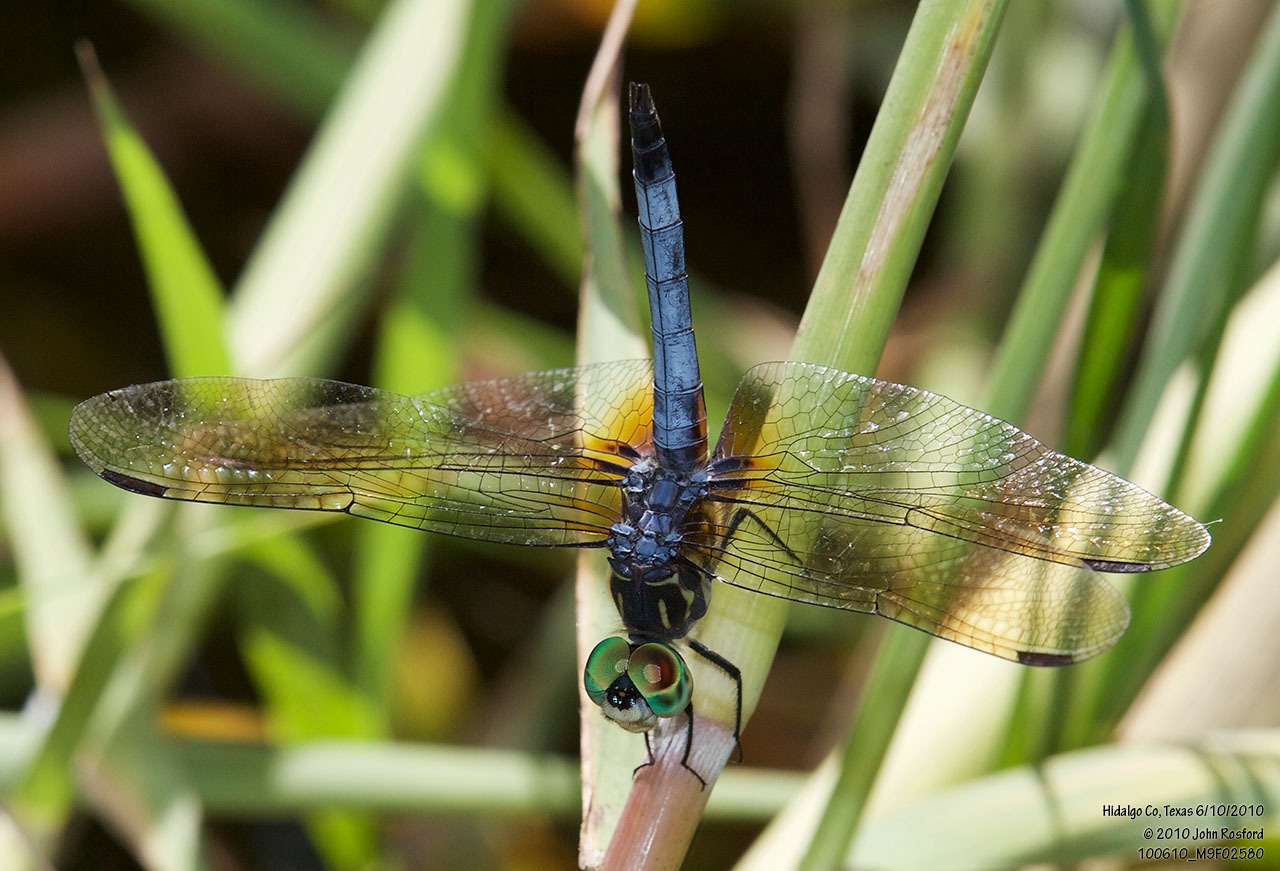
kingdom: Animalia
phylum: Arthropoda
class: Insecta
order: Odonata
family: Libellulidae
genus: Pachydiplax
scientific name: Pachydiplax longipennis
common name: Blue dasher
